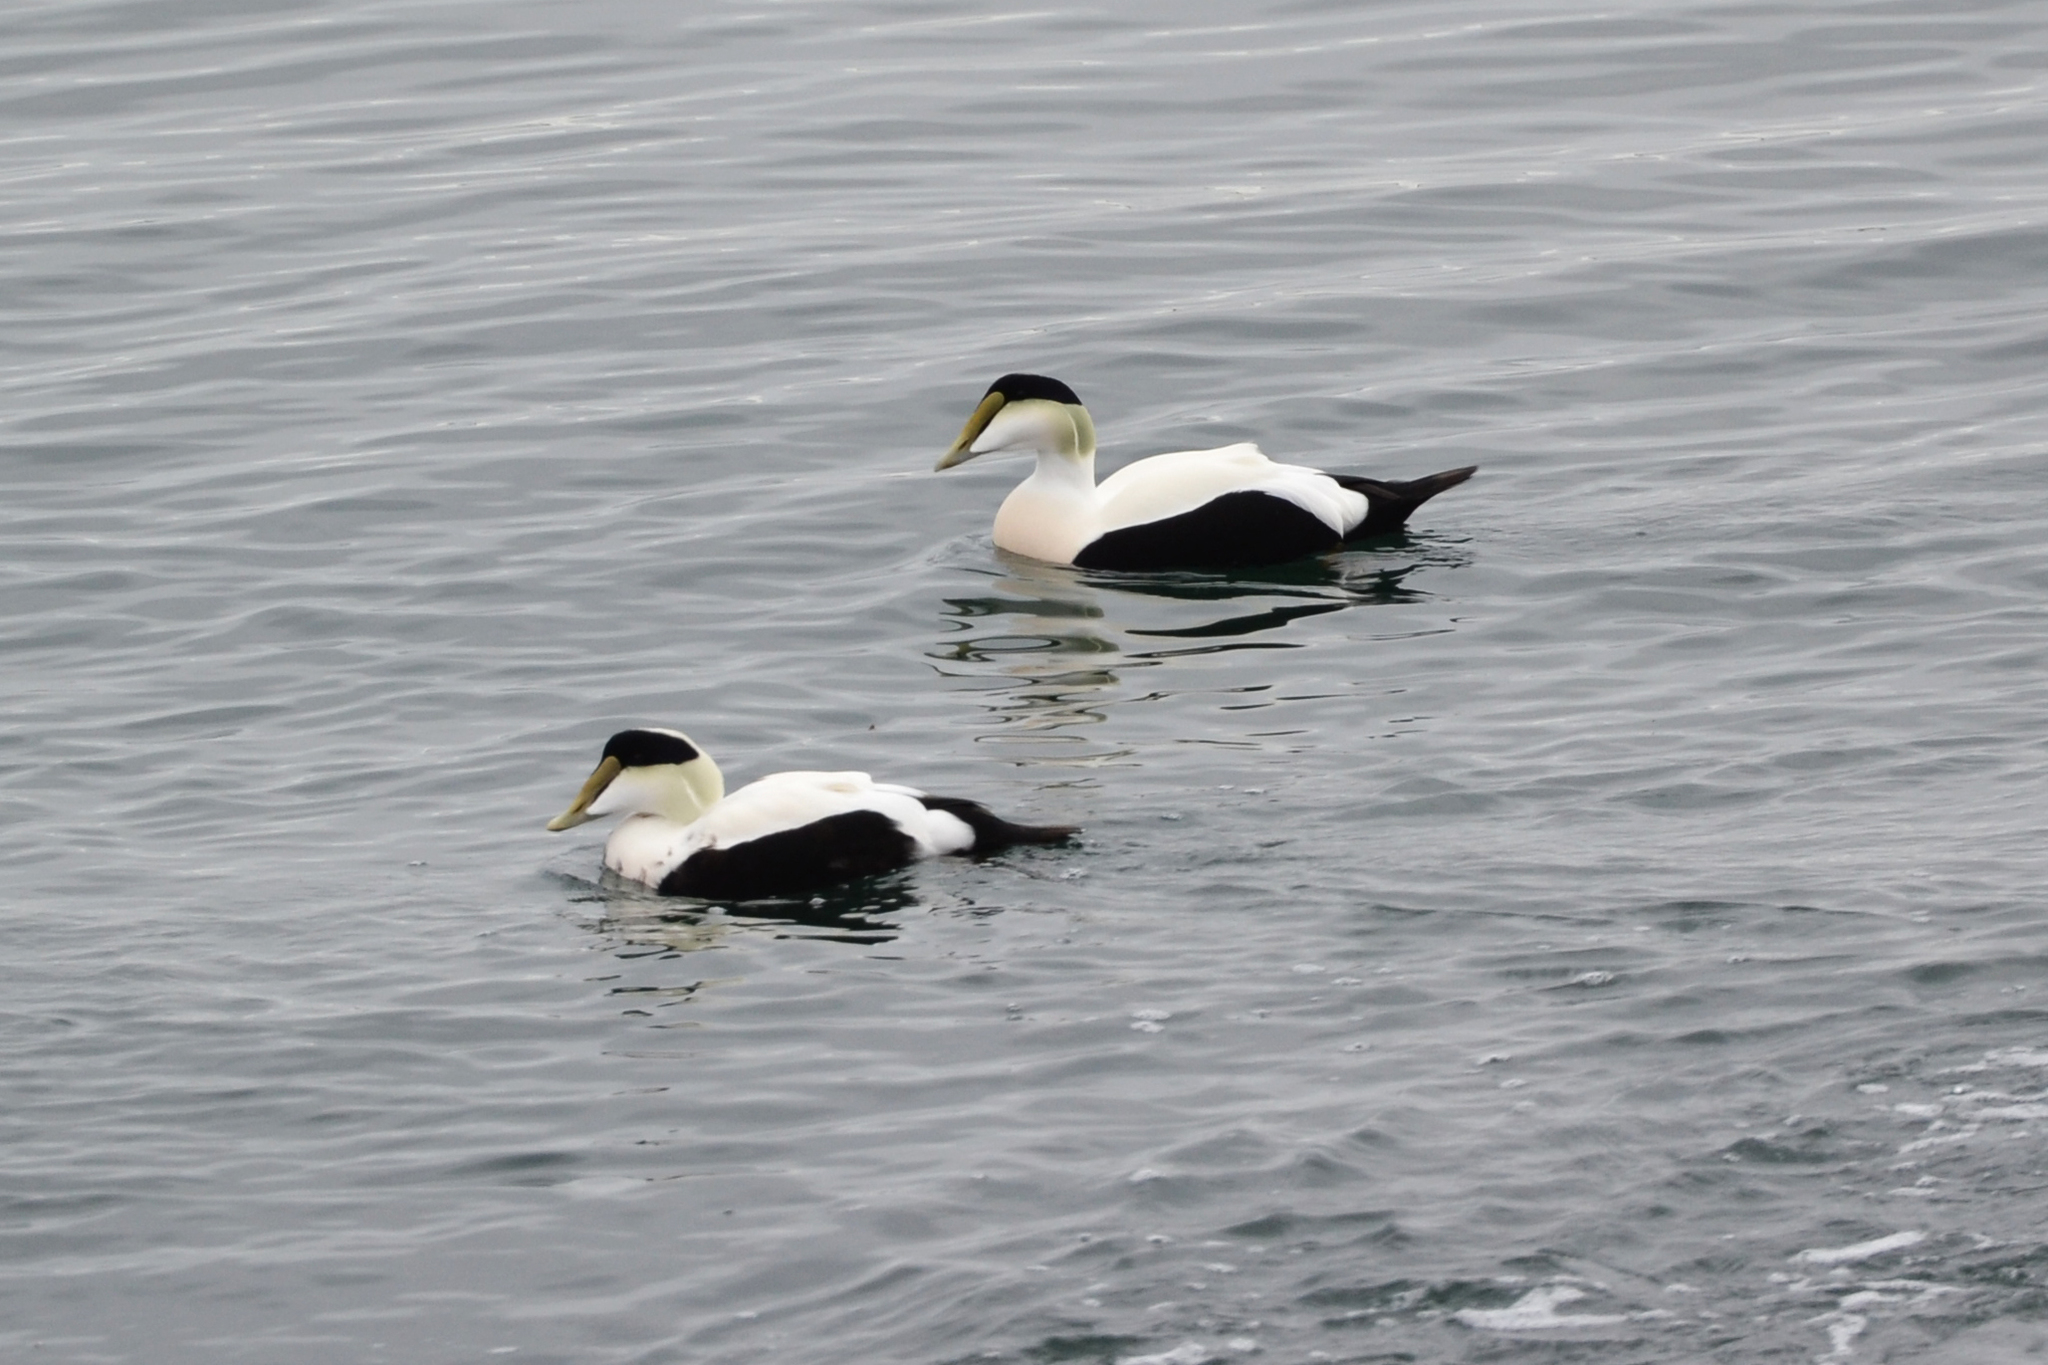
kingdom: Animalia
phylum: Chordata
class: Aves
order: Anseriformes
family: Anatidae
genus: Somateria
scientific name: Somateria mollissima
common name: Common eider
